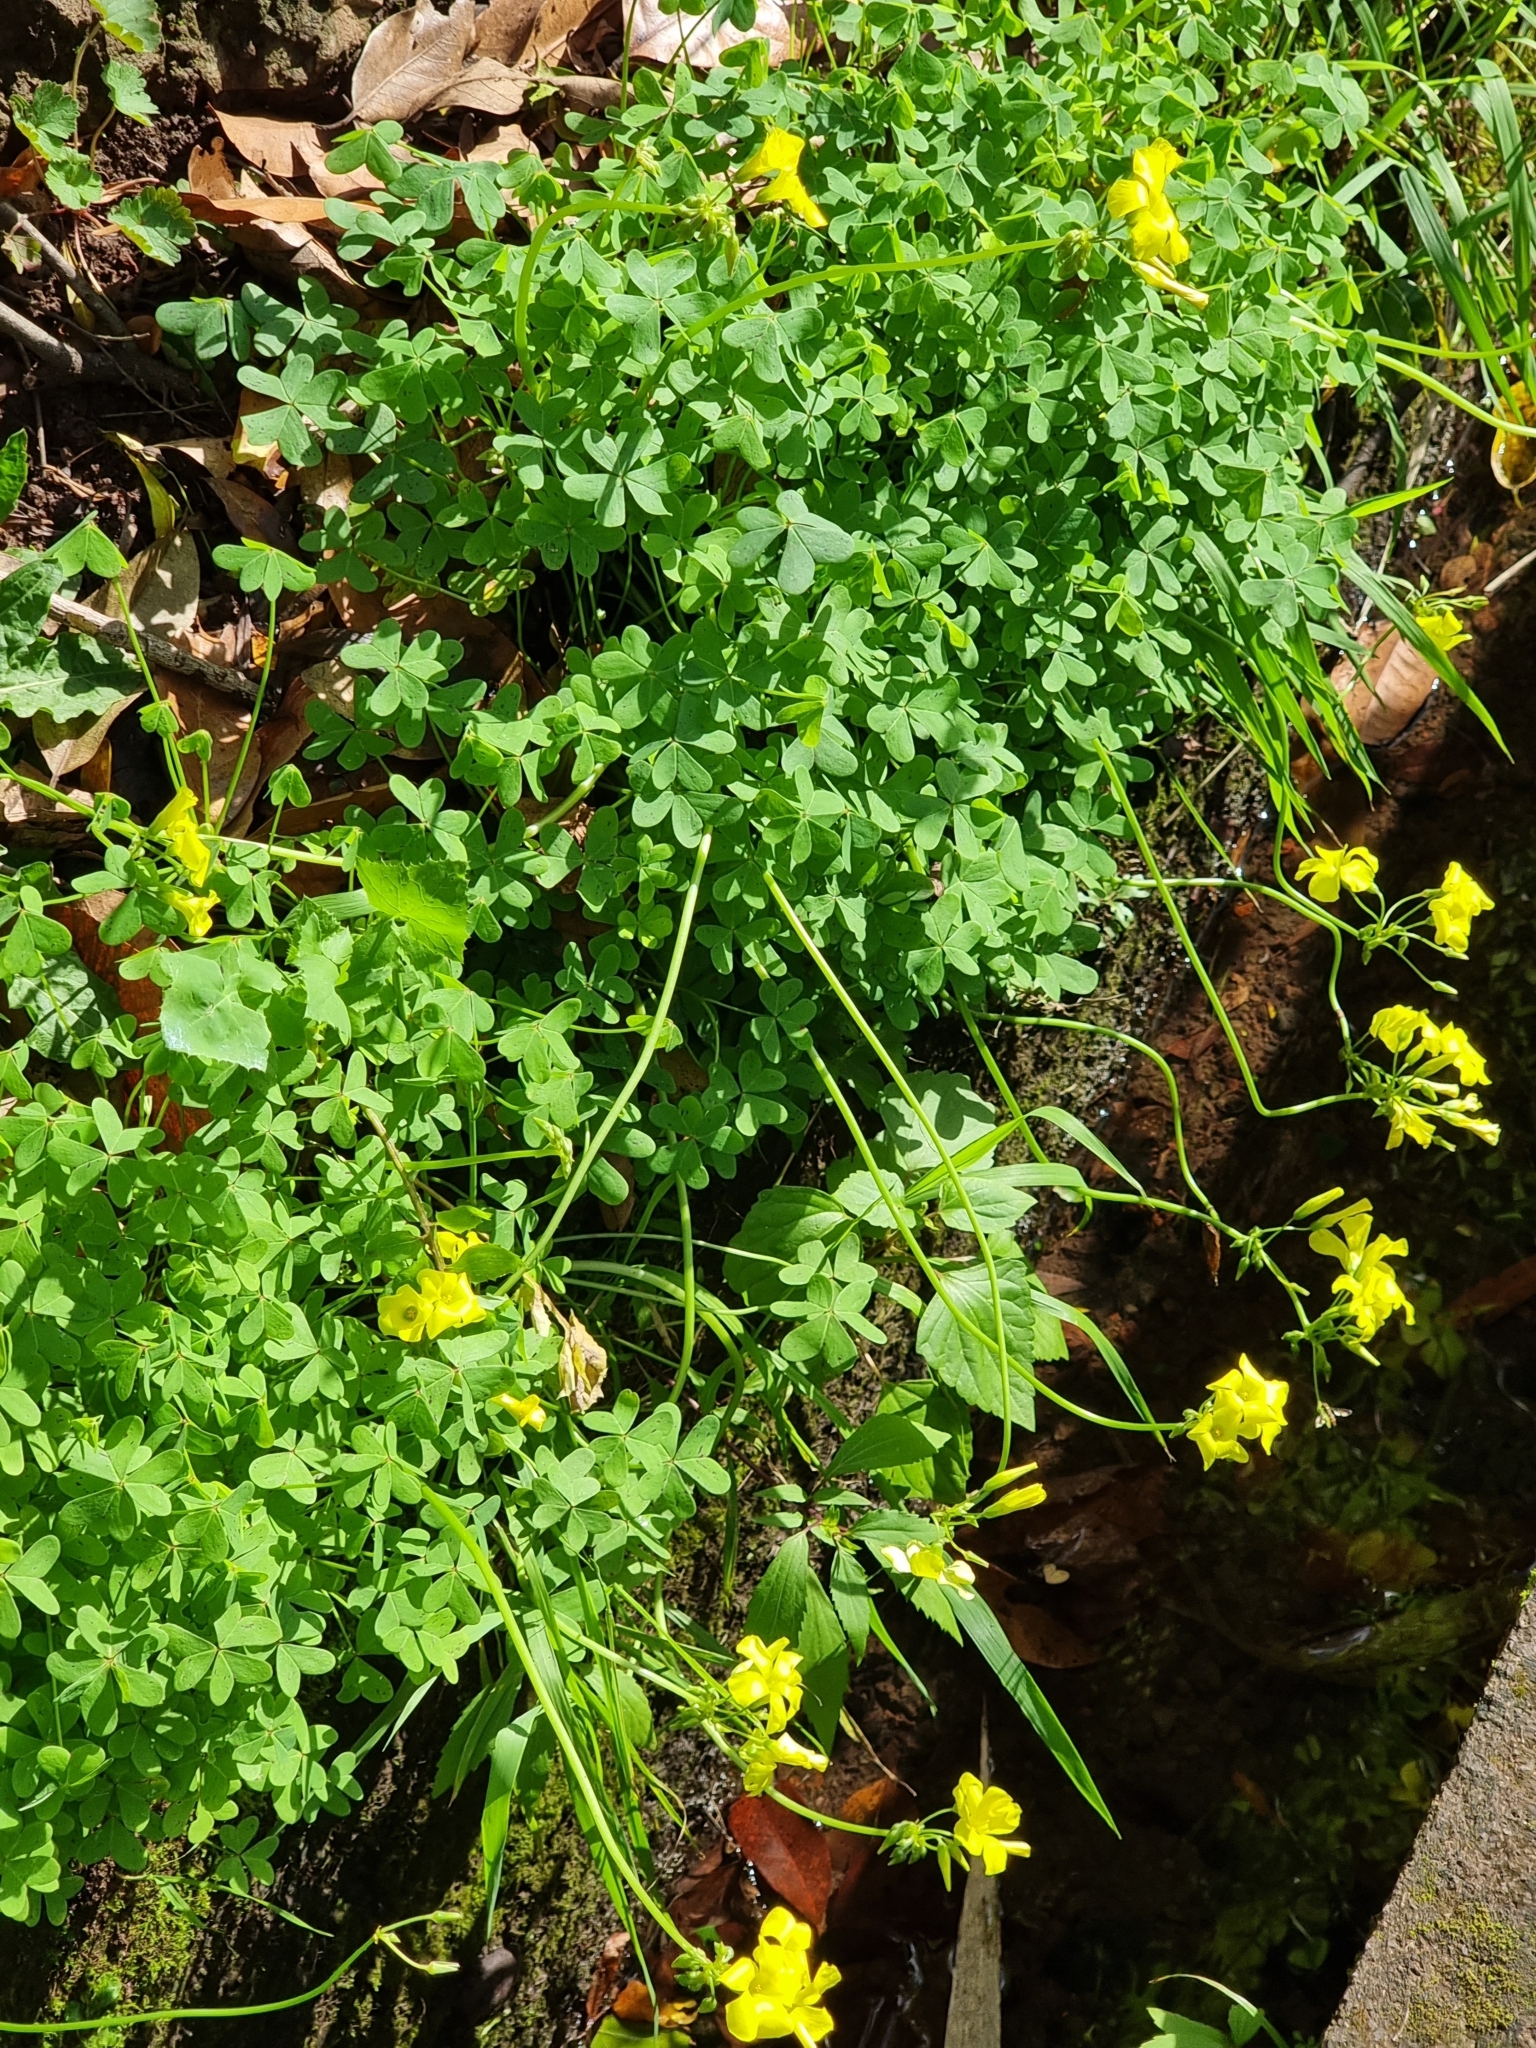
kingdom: Plantae
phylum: Tracheophyta
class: Magnoliopsida
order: Oxalidales
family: Oxalidaceae
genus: Oxalis
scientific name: Oxalis pes-caprae
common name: Bermuda-buttercup
